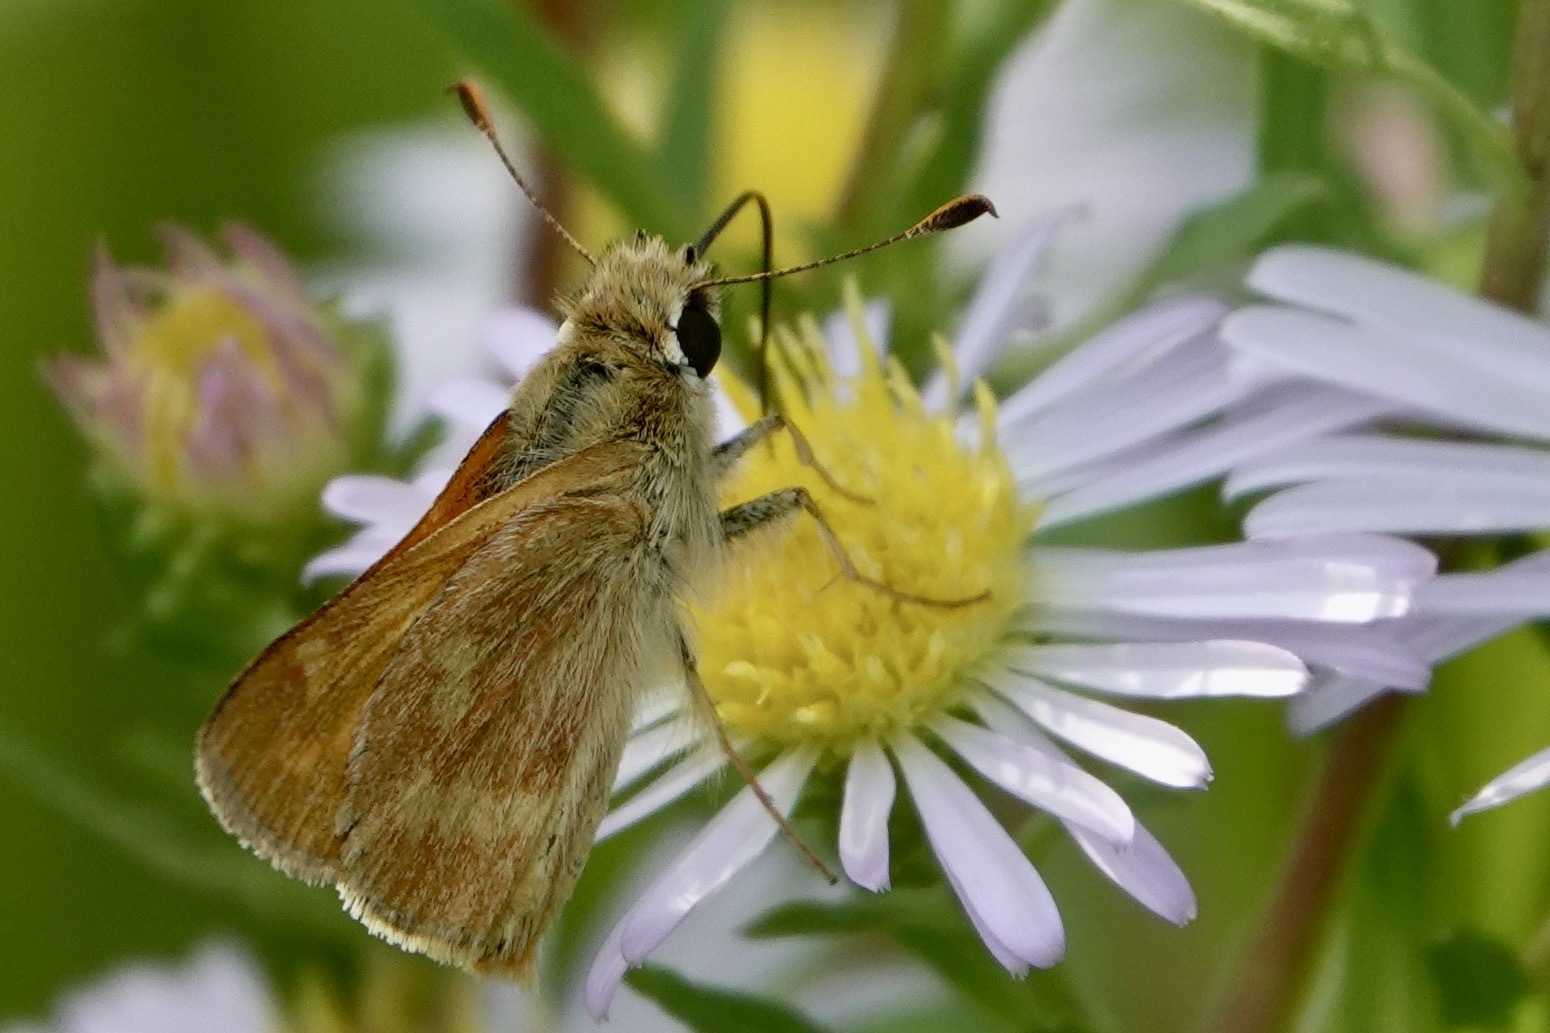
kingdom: Animalia
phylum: Arthropoda
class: Insecta
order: Lepidoptera
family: Hesperiidae
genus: Ochlodes
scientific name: Ochlodes sylvanoides
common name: Woodland skipper
